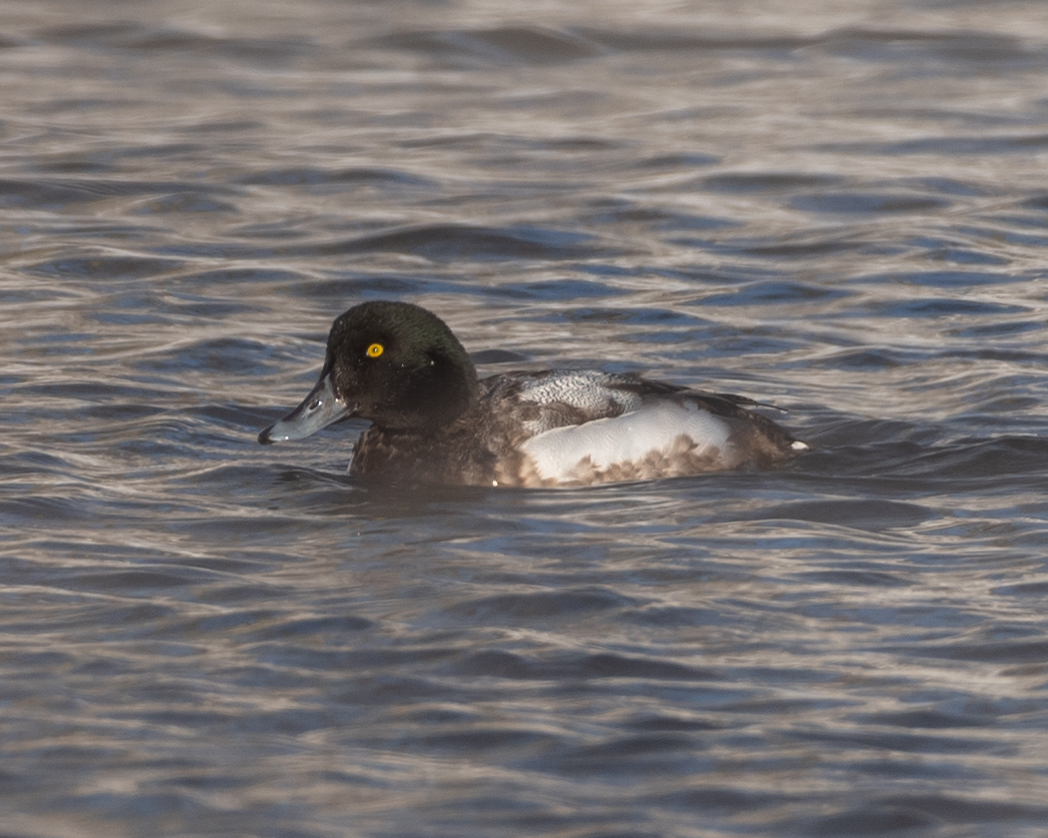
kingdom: Animalia
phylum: Chordata
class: Aves
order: Anseriformes
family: Anatidae
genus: Aythya
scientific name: Aythya marila
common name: Greater scaup
